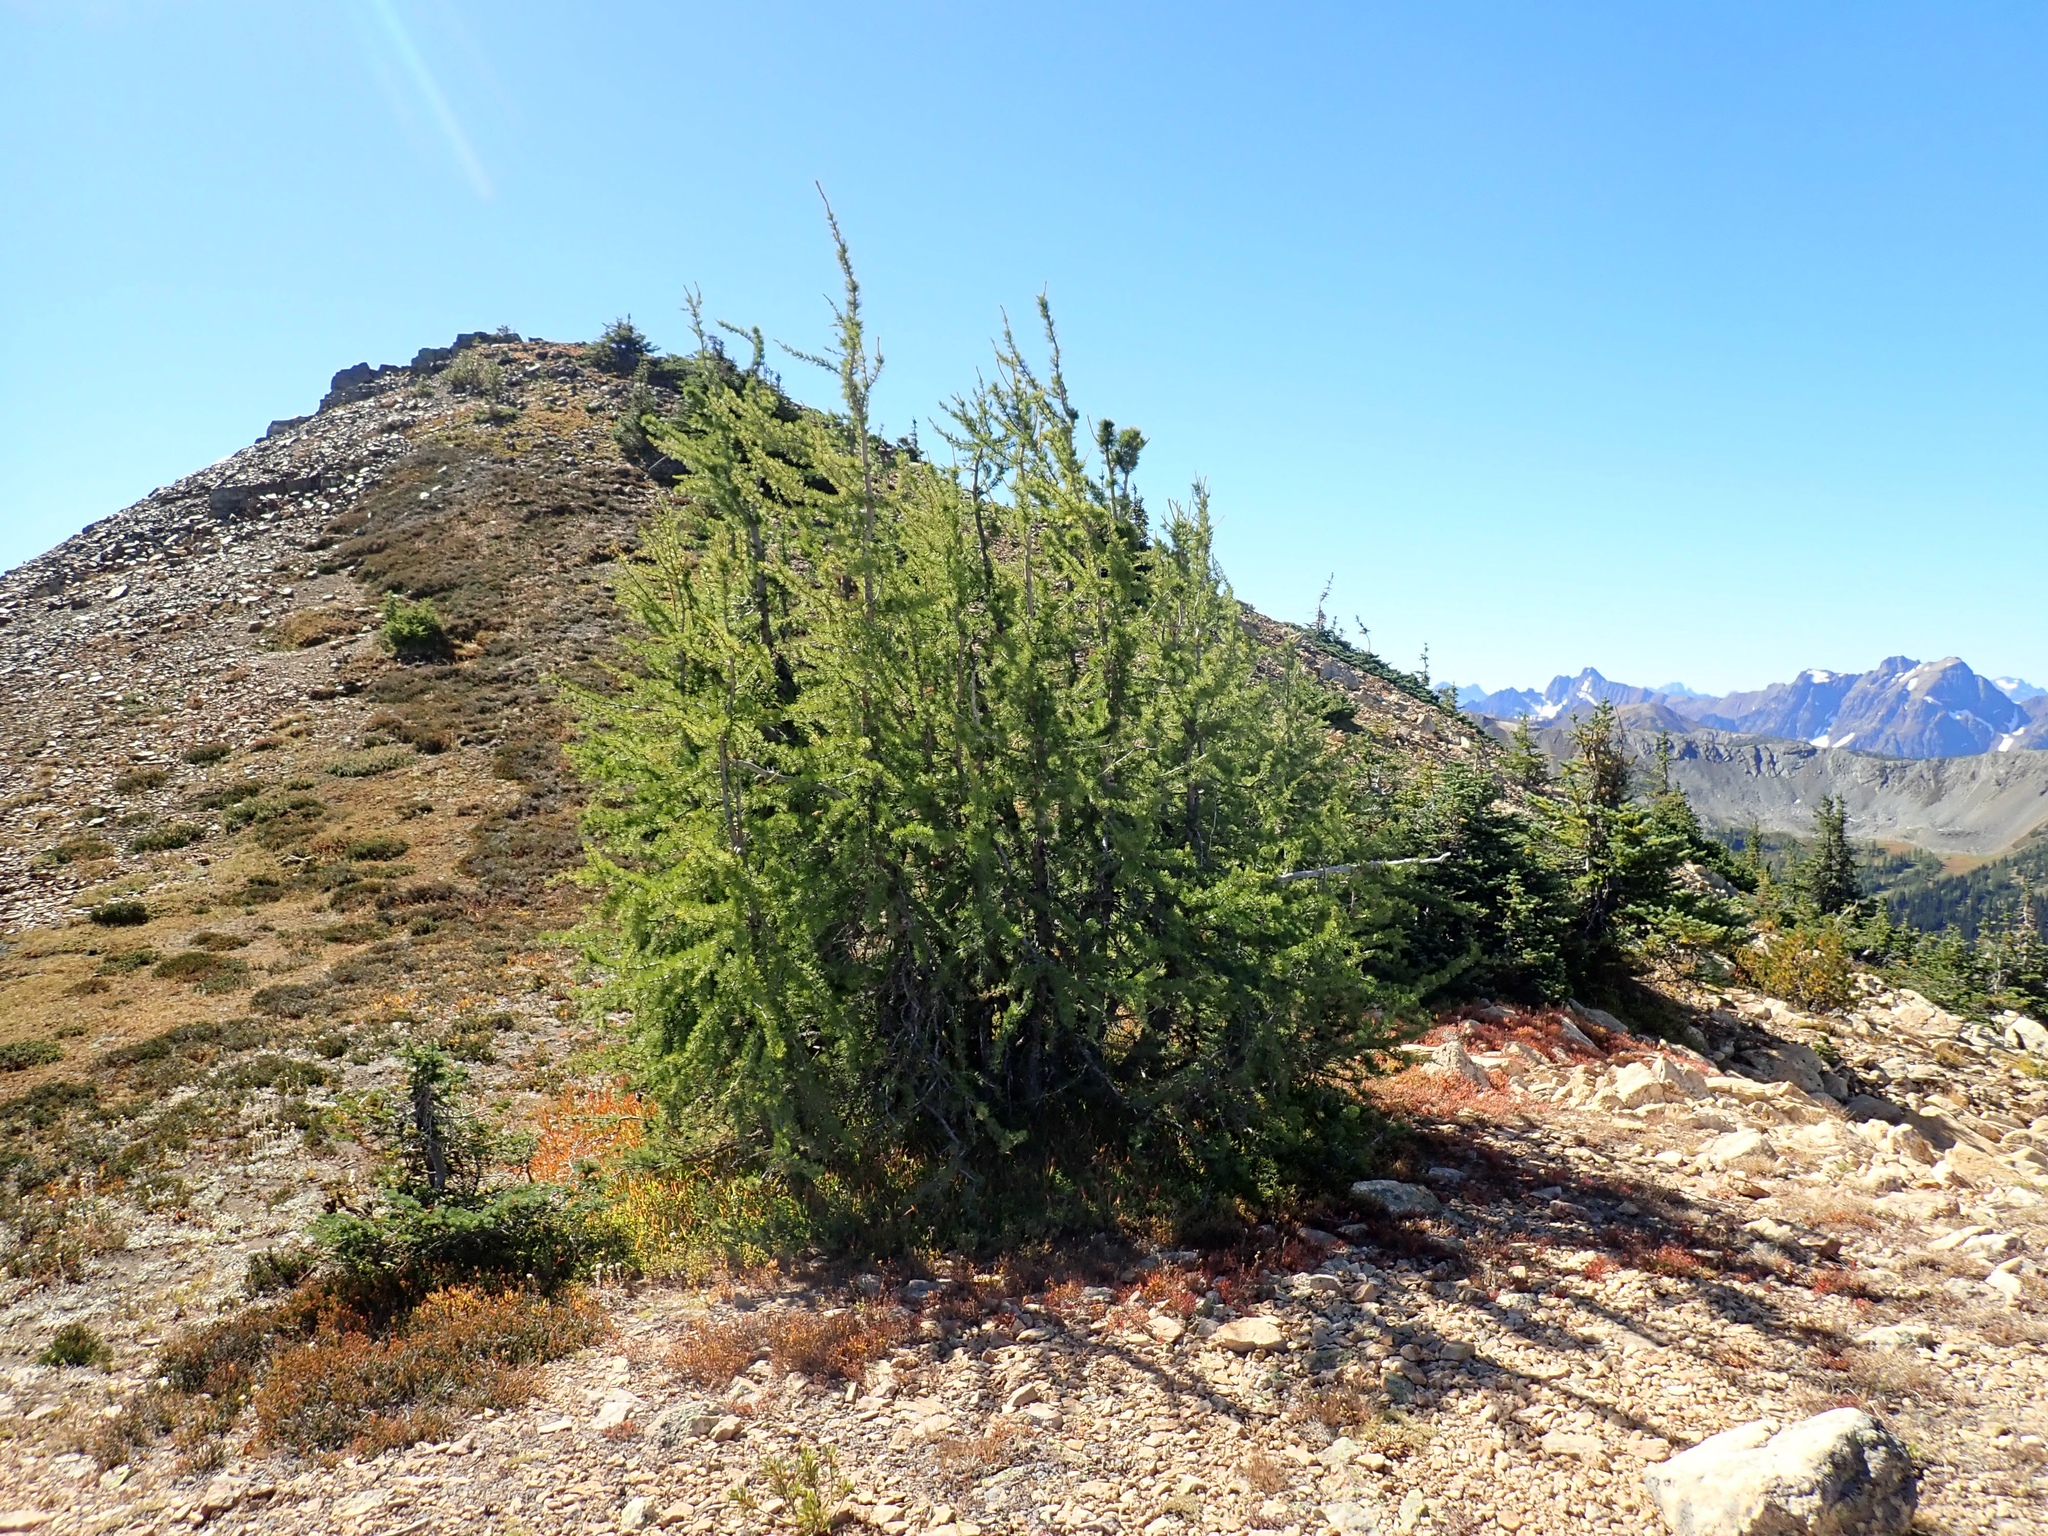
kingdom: Plantae
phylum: Tracheophyta
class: Pinopsida
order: Pinales
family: Pinaceae
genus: Larix
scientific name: Larix lyallii
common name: Alpine larch
